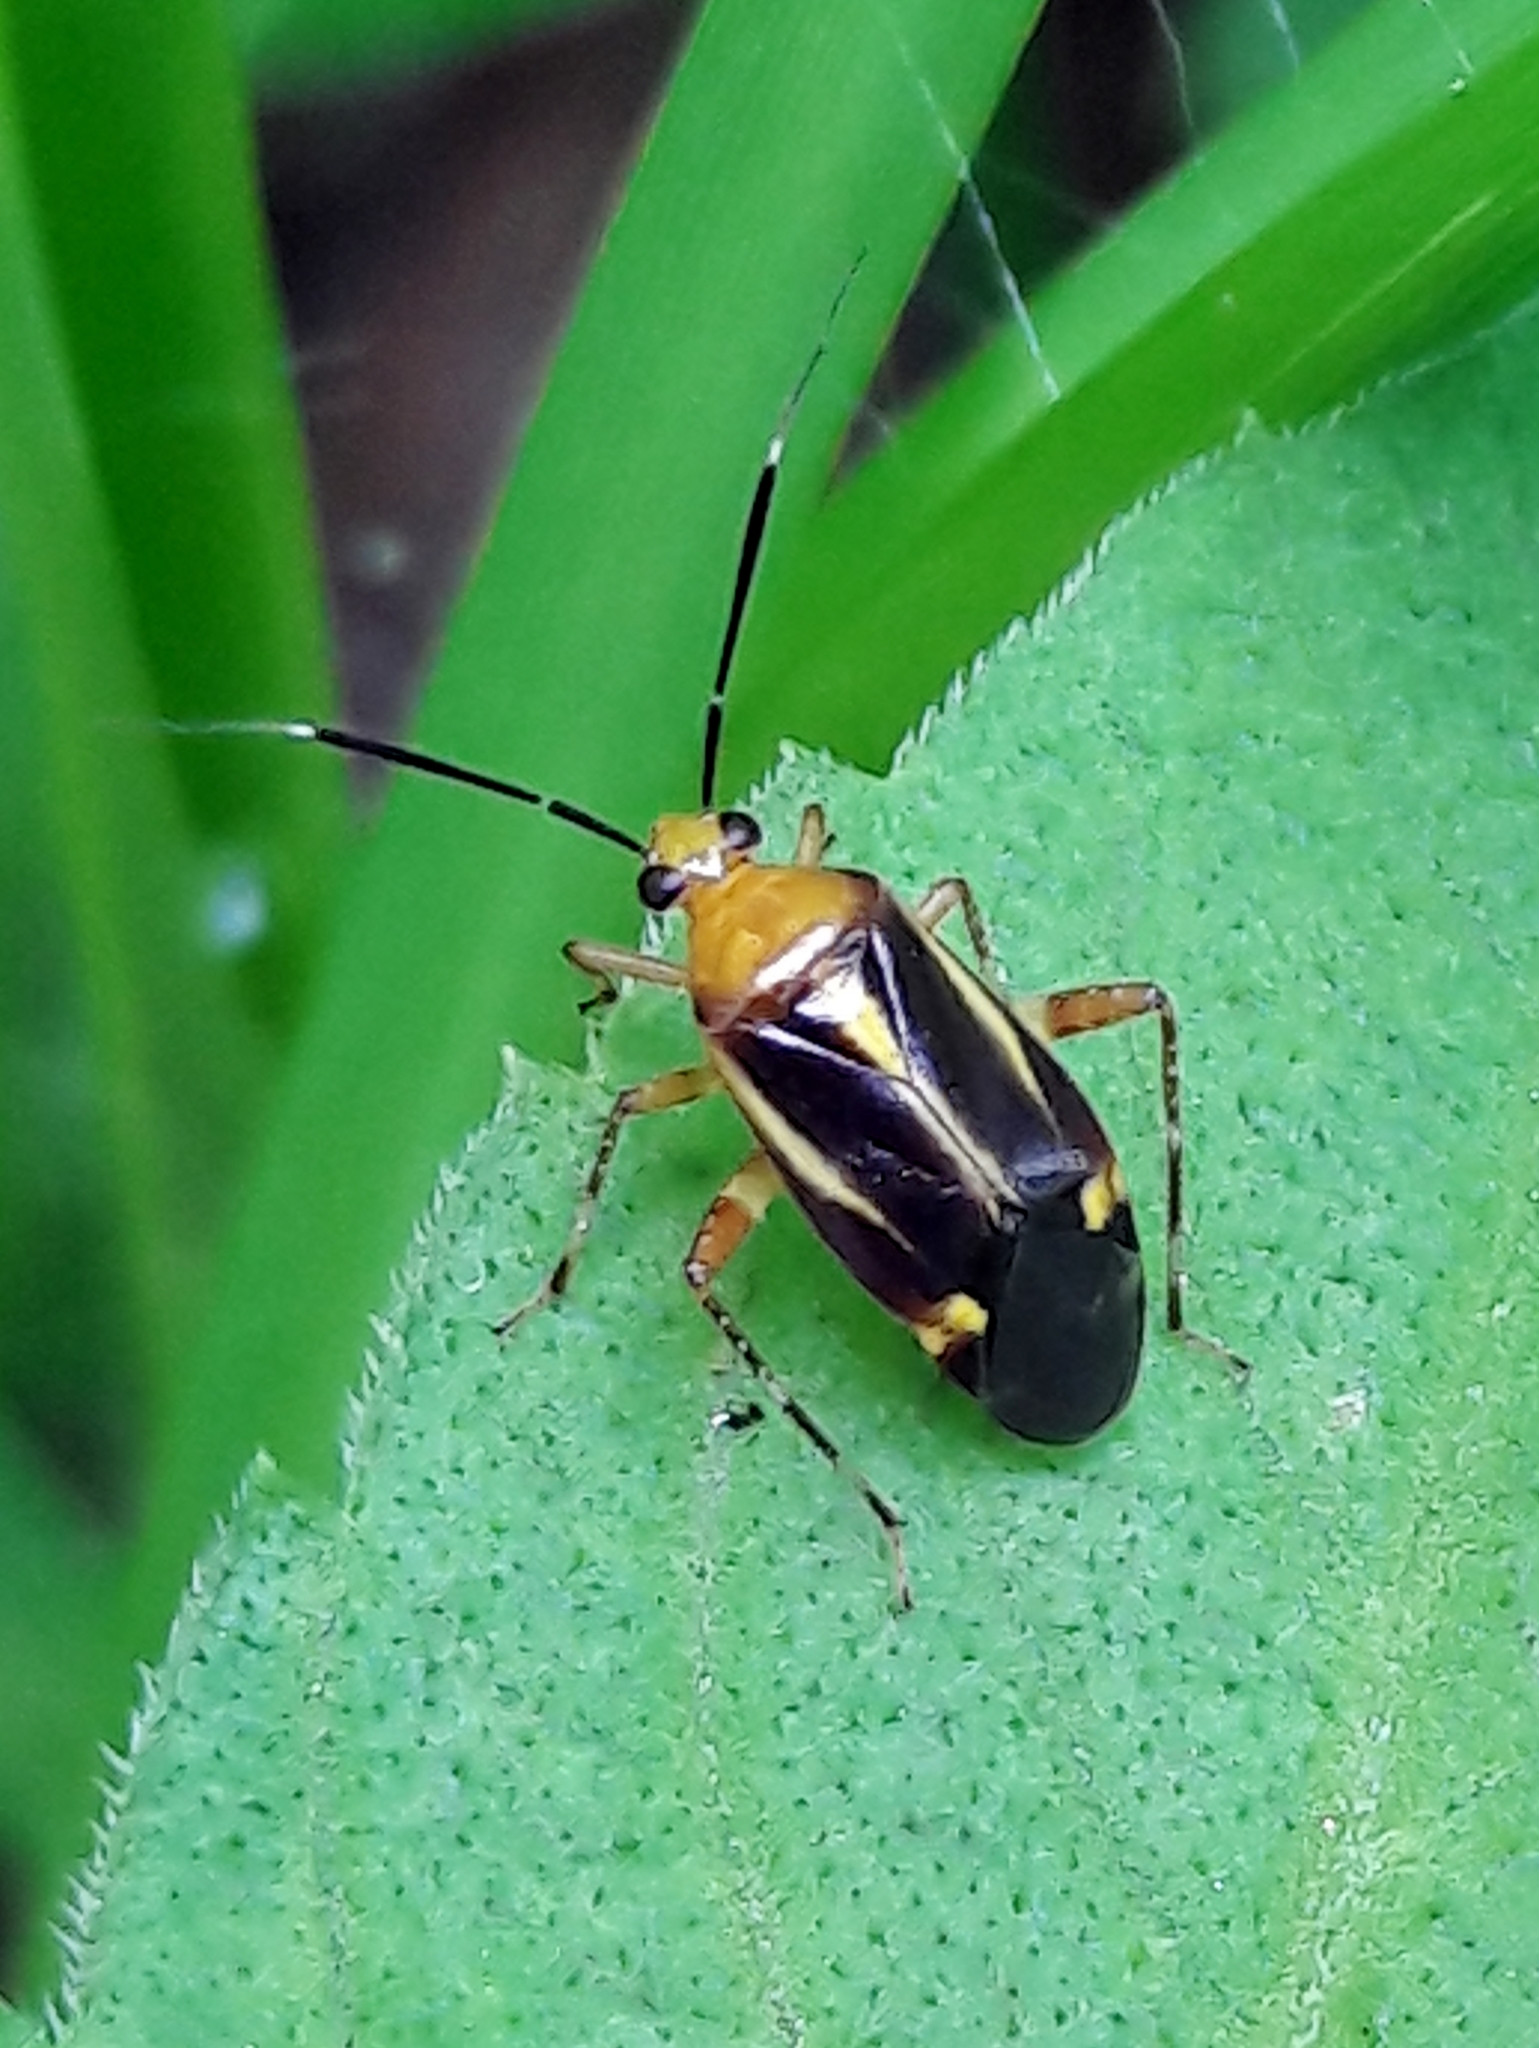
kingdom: Animalia
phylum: Arthropoda
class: Insecta
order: Hemiptera
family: Miridae
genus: Horciasinus
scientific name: Horciasinus signoreti
